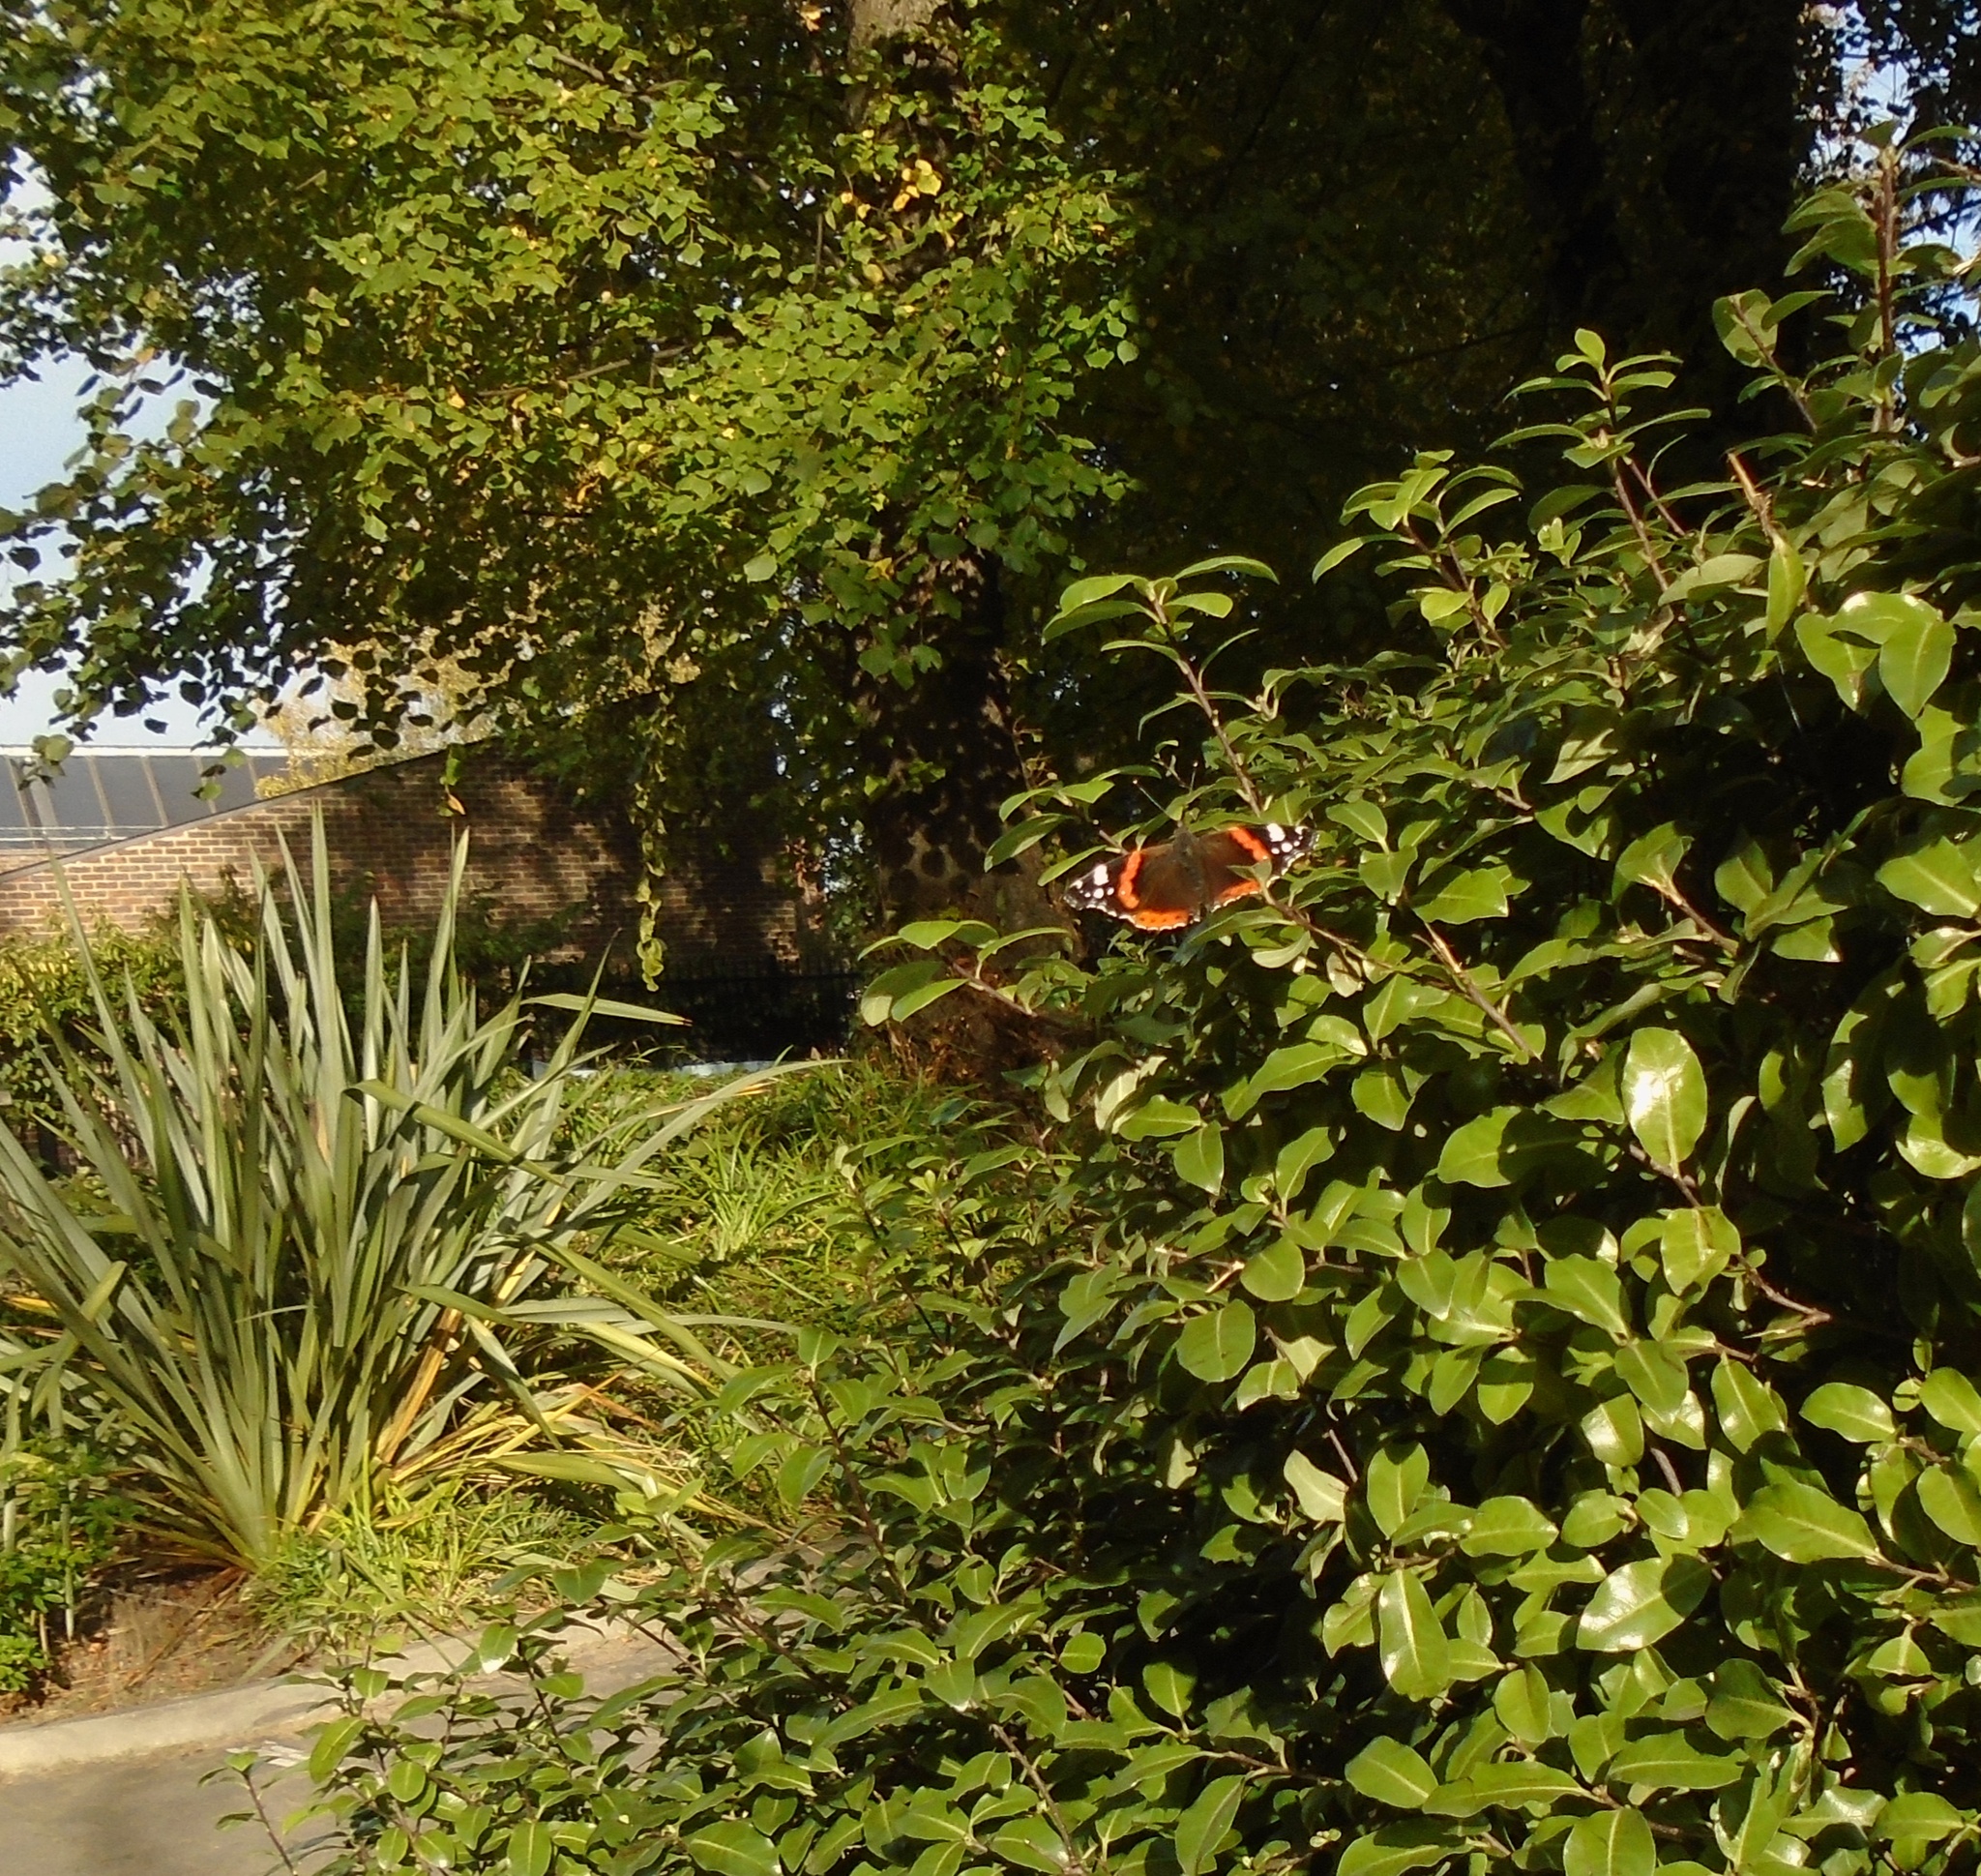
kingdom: Animalia
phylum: Arthropoda
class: Insecta
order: Lepidoptera
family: Nymphalidae
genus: Vanessa
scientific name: Vanessa atalanta
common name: Red admiral
